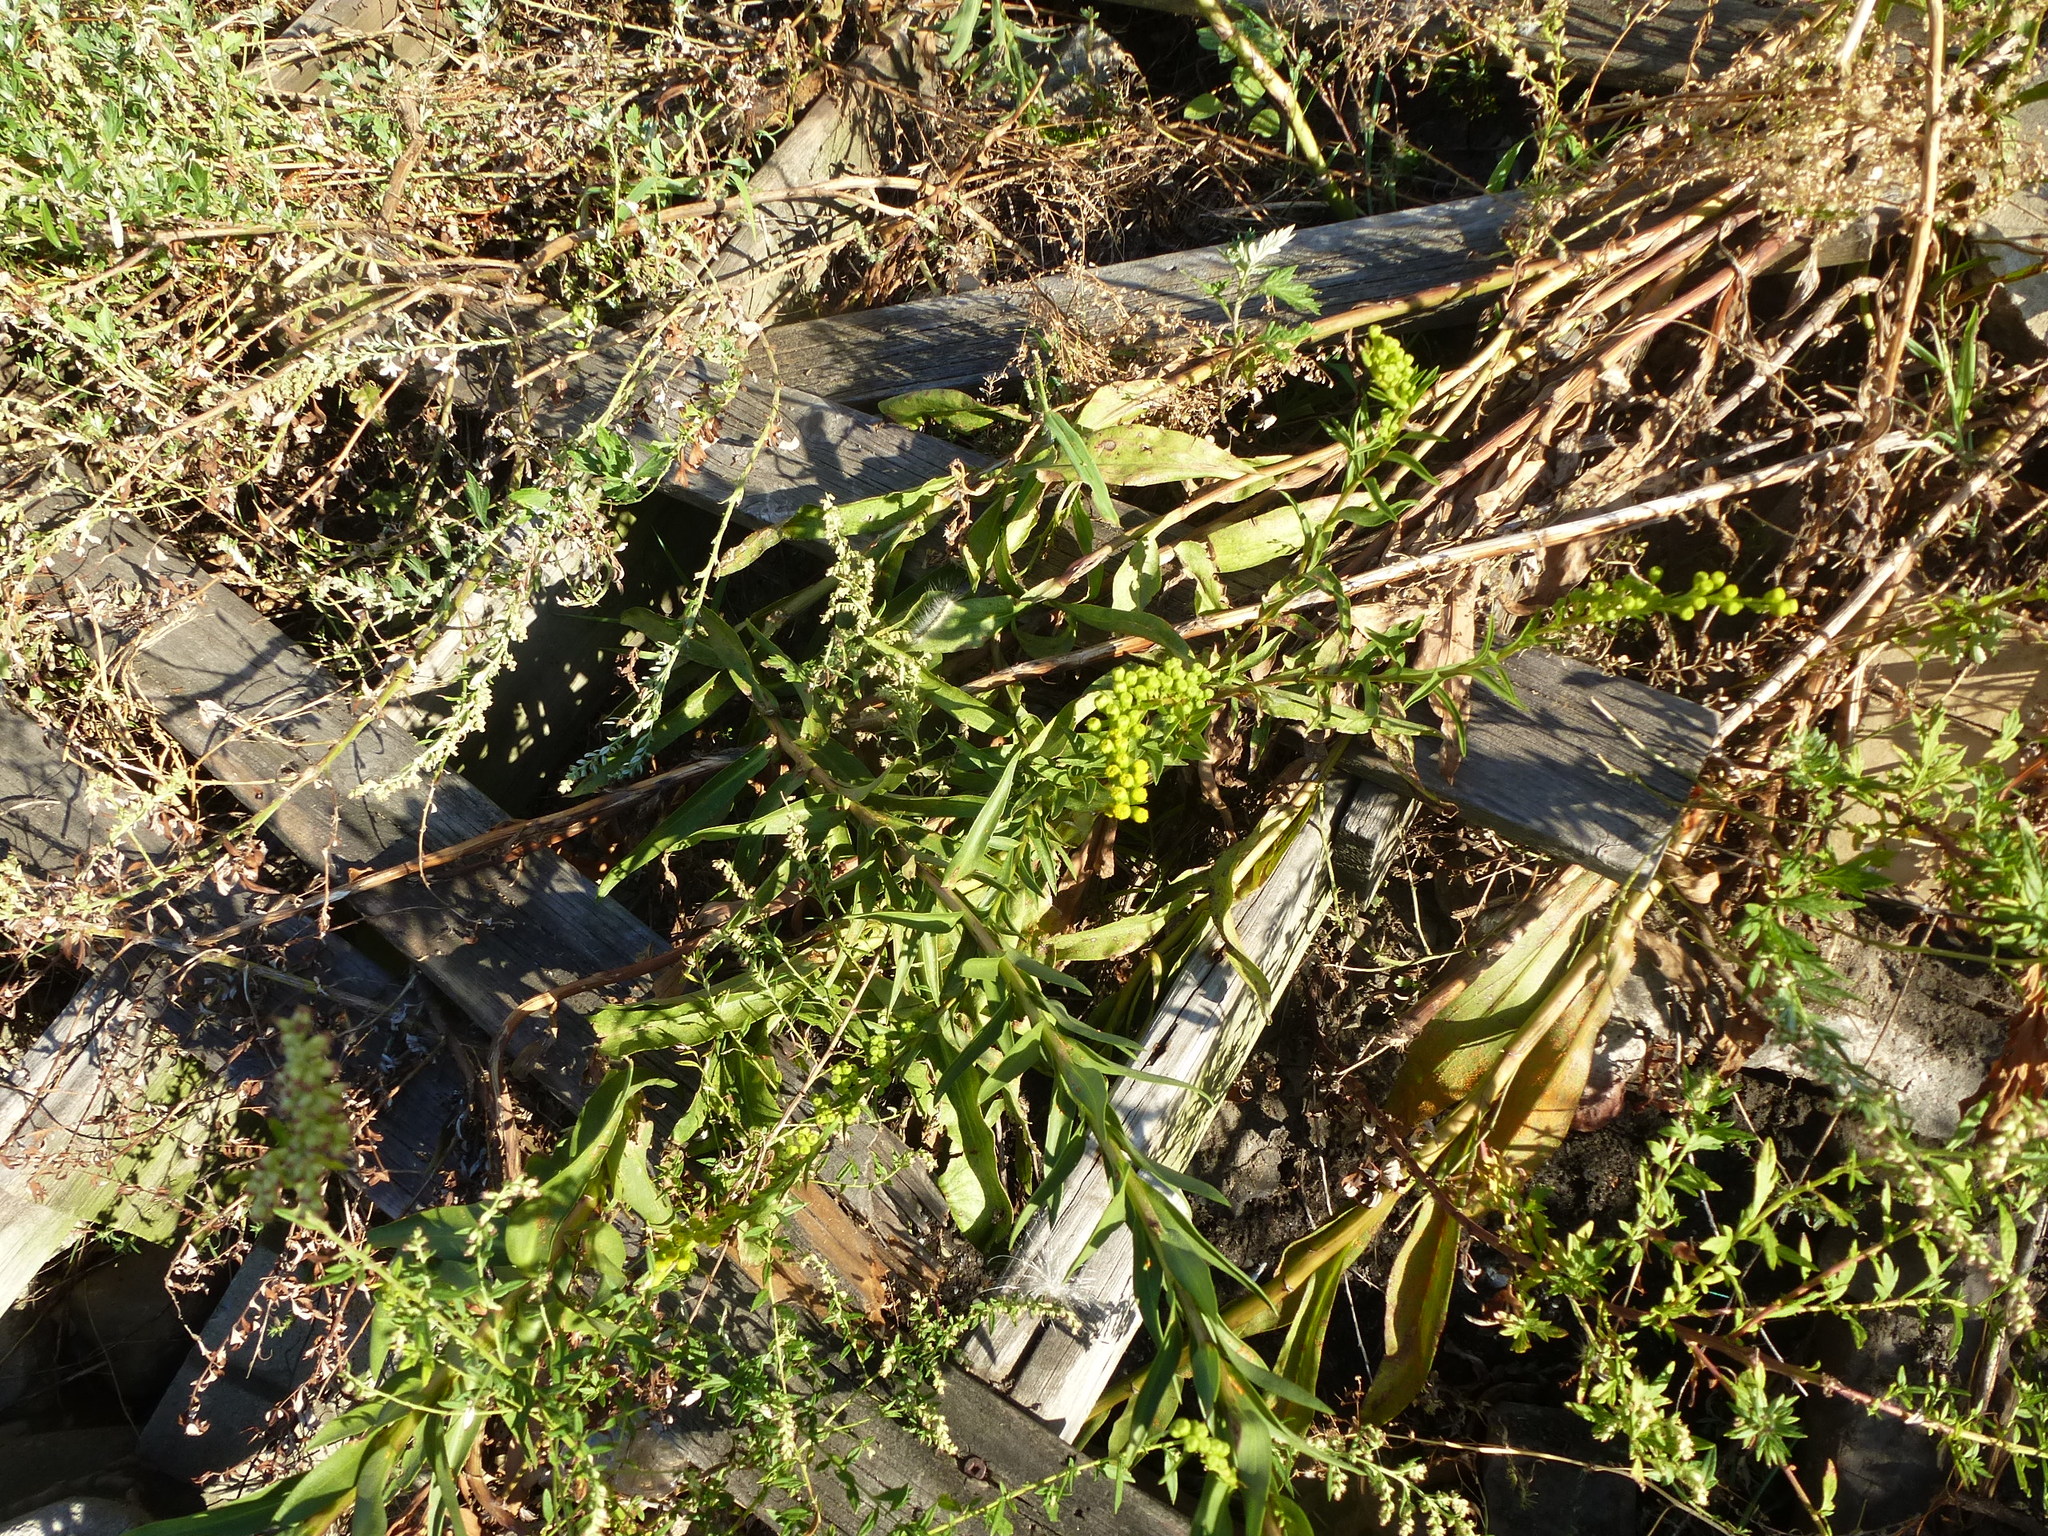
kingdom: Plantae
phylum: Tracheophyta
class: Magnoliopsida
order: Asterales
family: Asteraceae
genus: Solidago
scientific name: Solidago sempervirens
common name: Salt-marsh goldenrod
